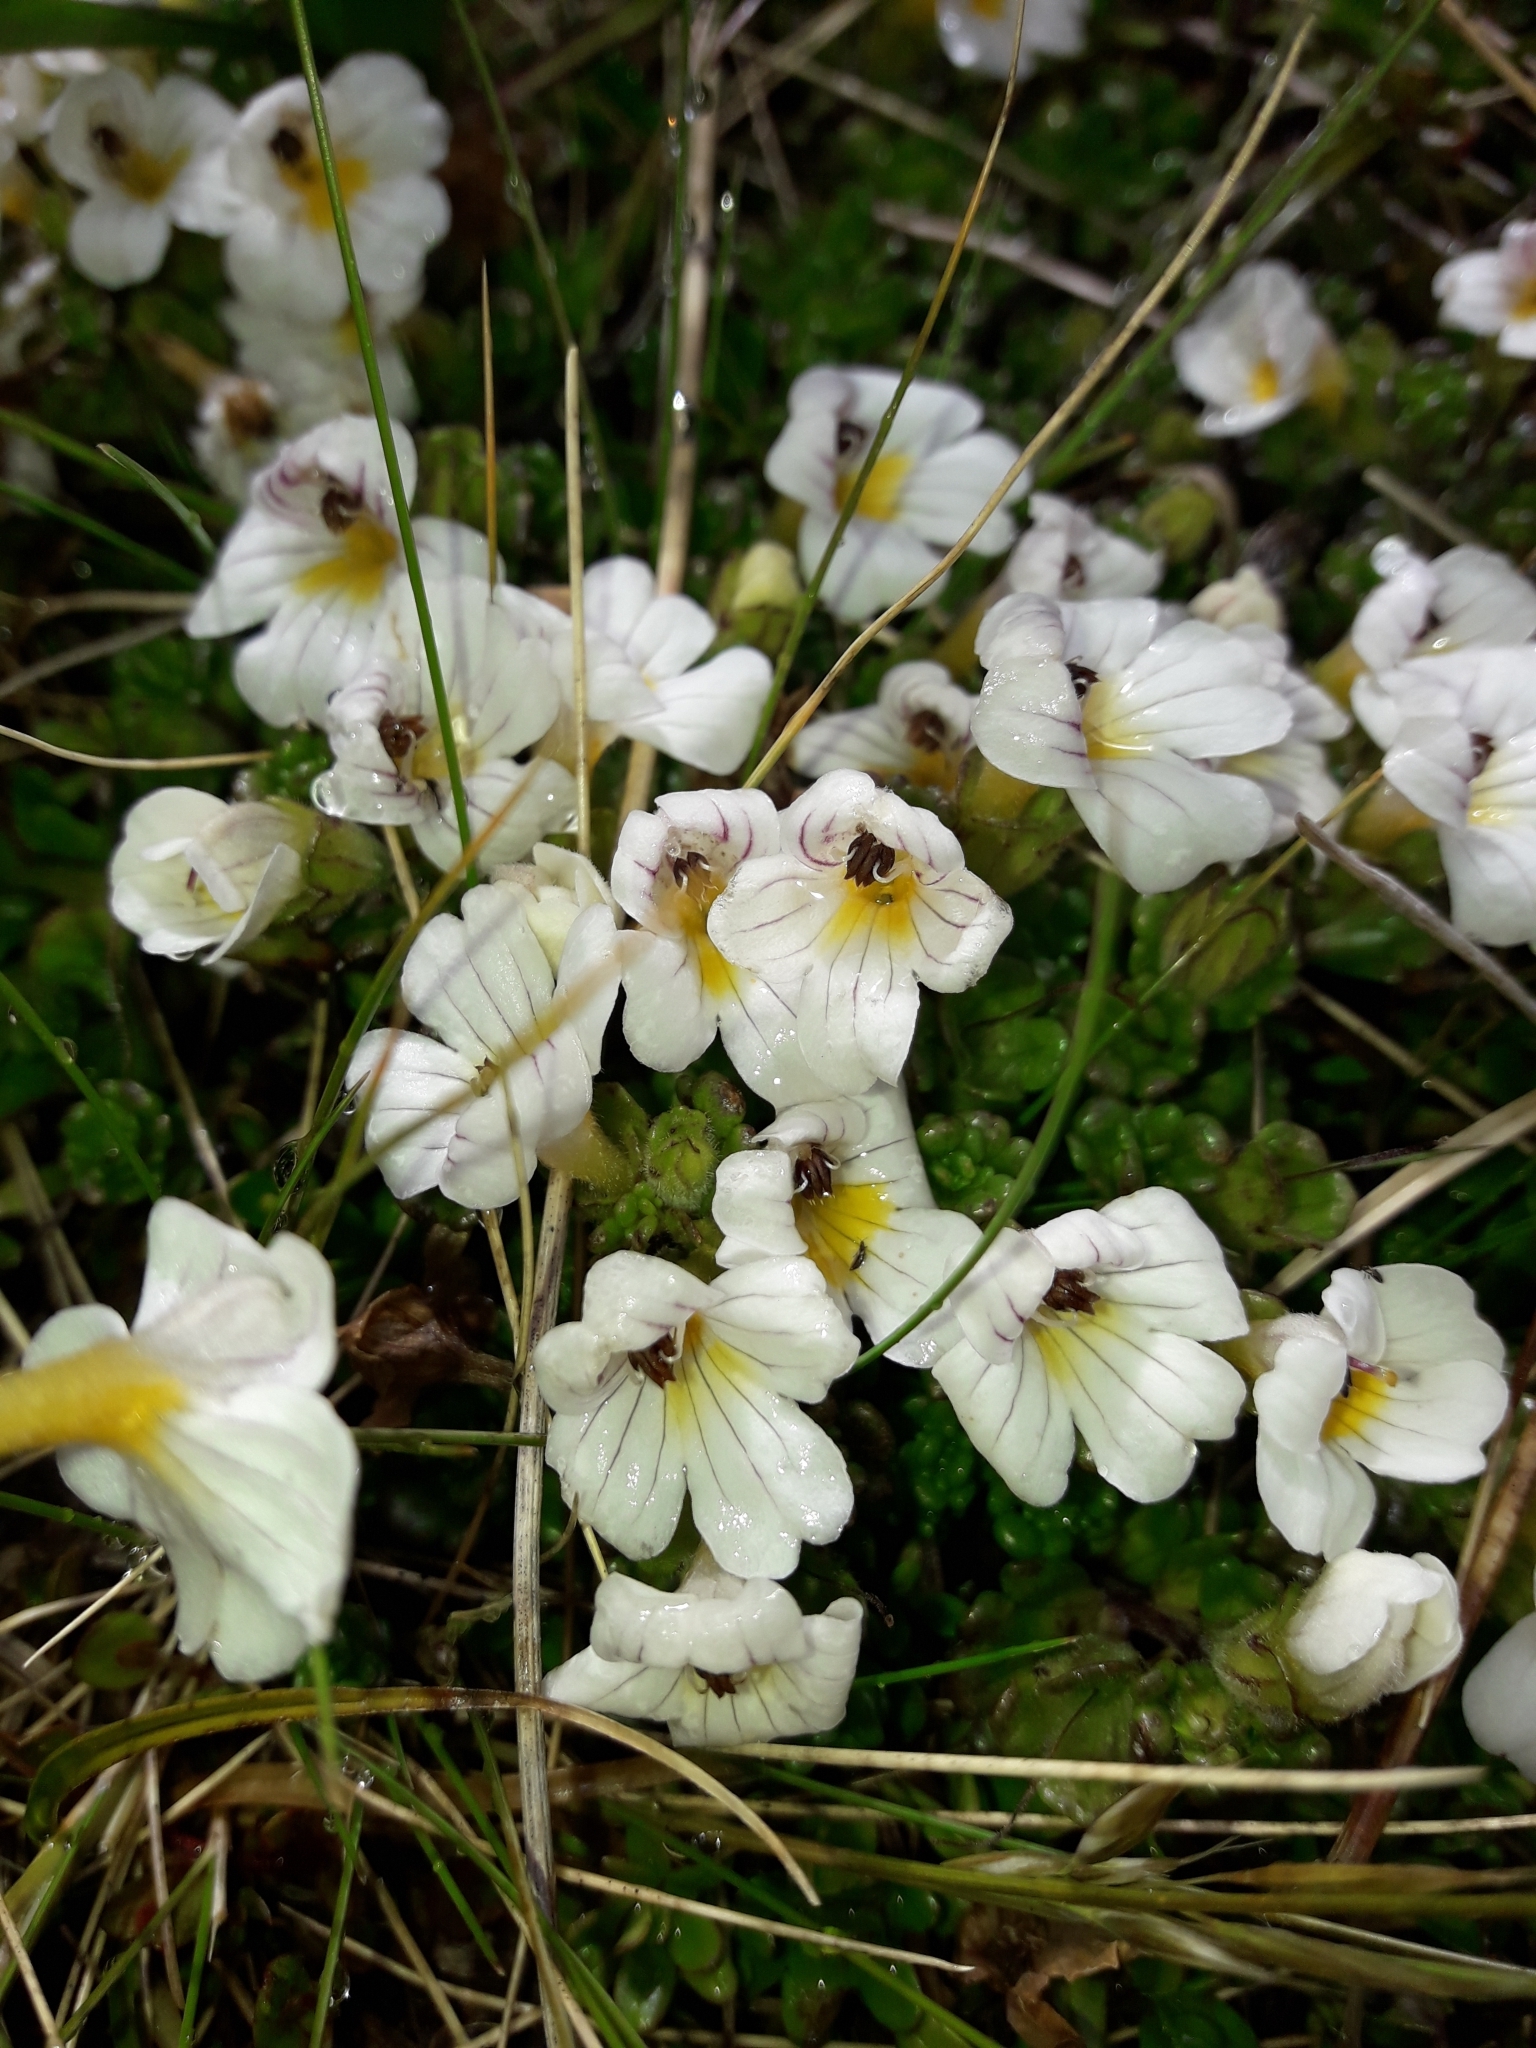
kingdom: Plantae
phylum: Tracheophyta
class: Magnoliopsida
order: Lamiales
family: Orobanchaceae
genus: Euphrasia
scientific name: Euphrasia revoluta
